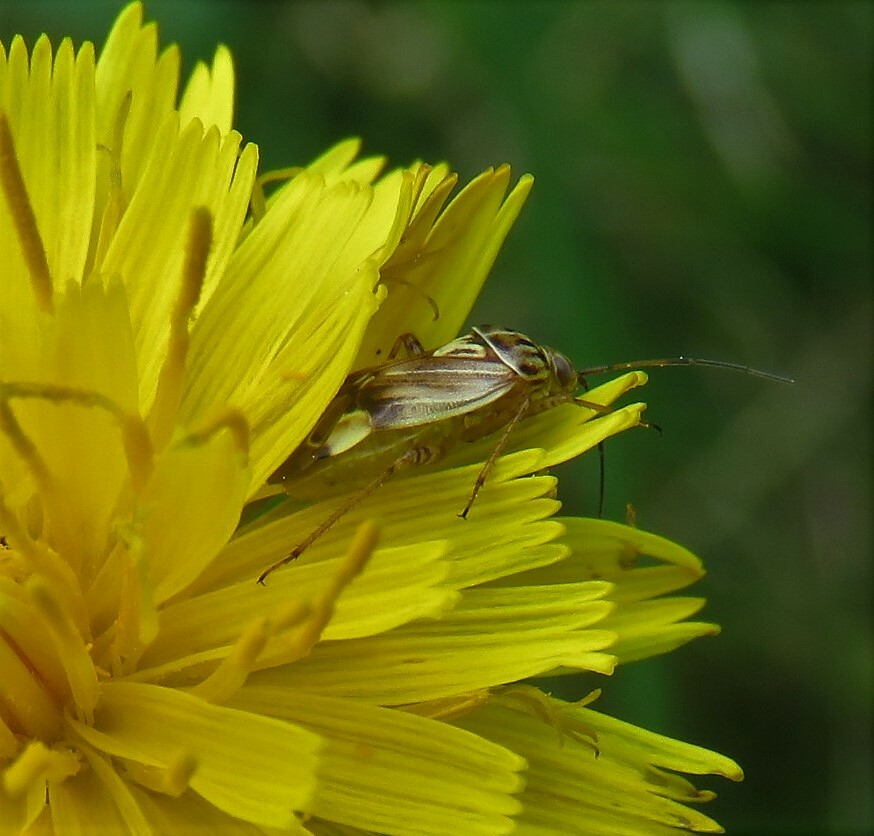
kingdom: Animalia
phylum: Arthropoda
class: Insecta
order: Hemiptera
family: Miridae
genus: Lygus
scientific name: Lygus lineolaris
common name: North american tarnished plant bug
